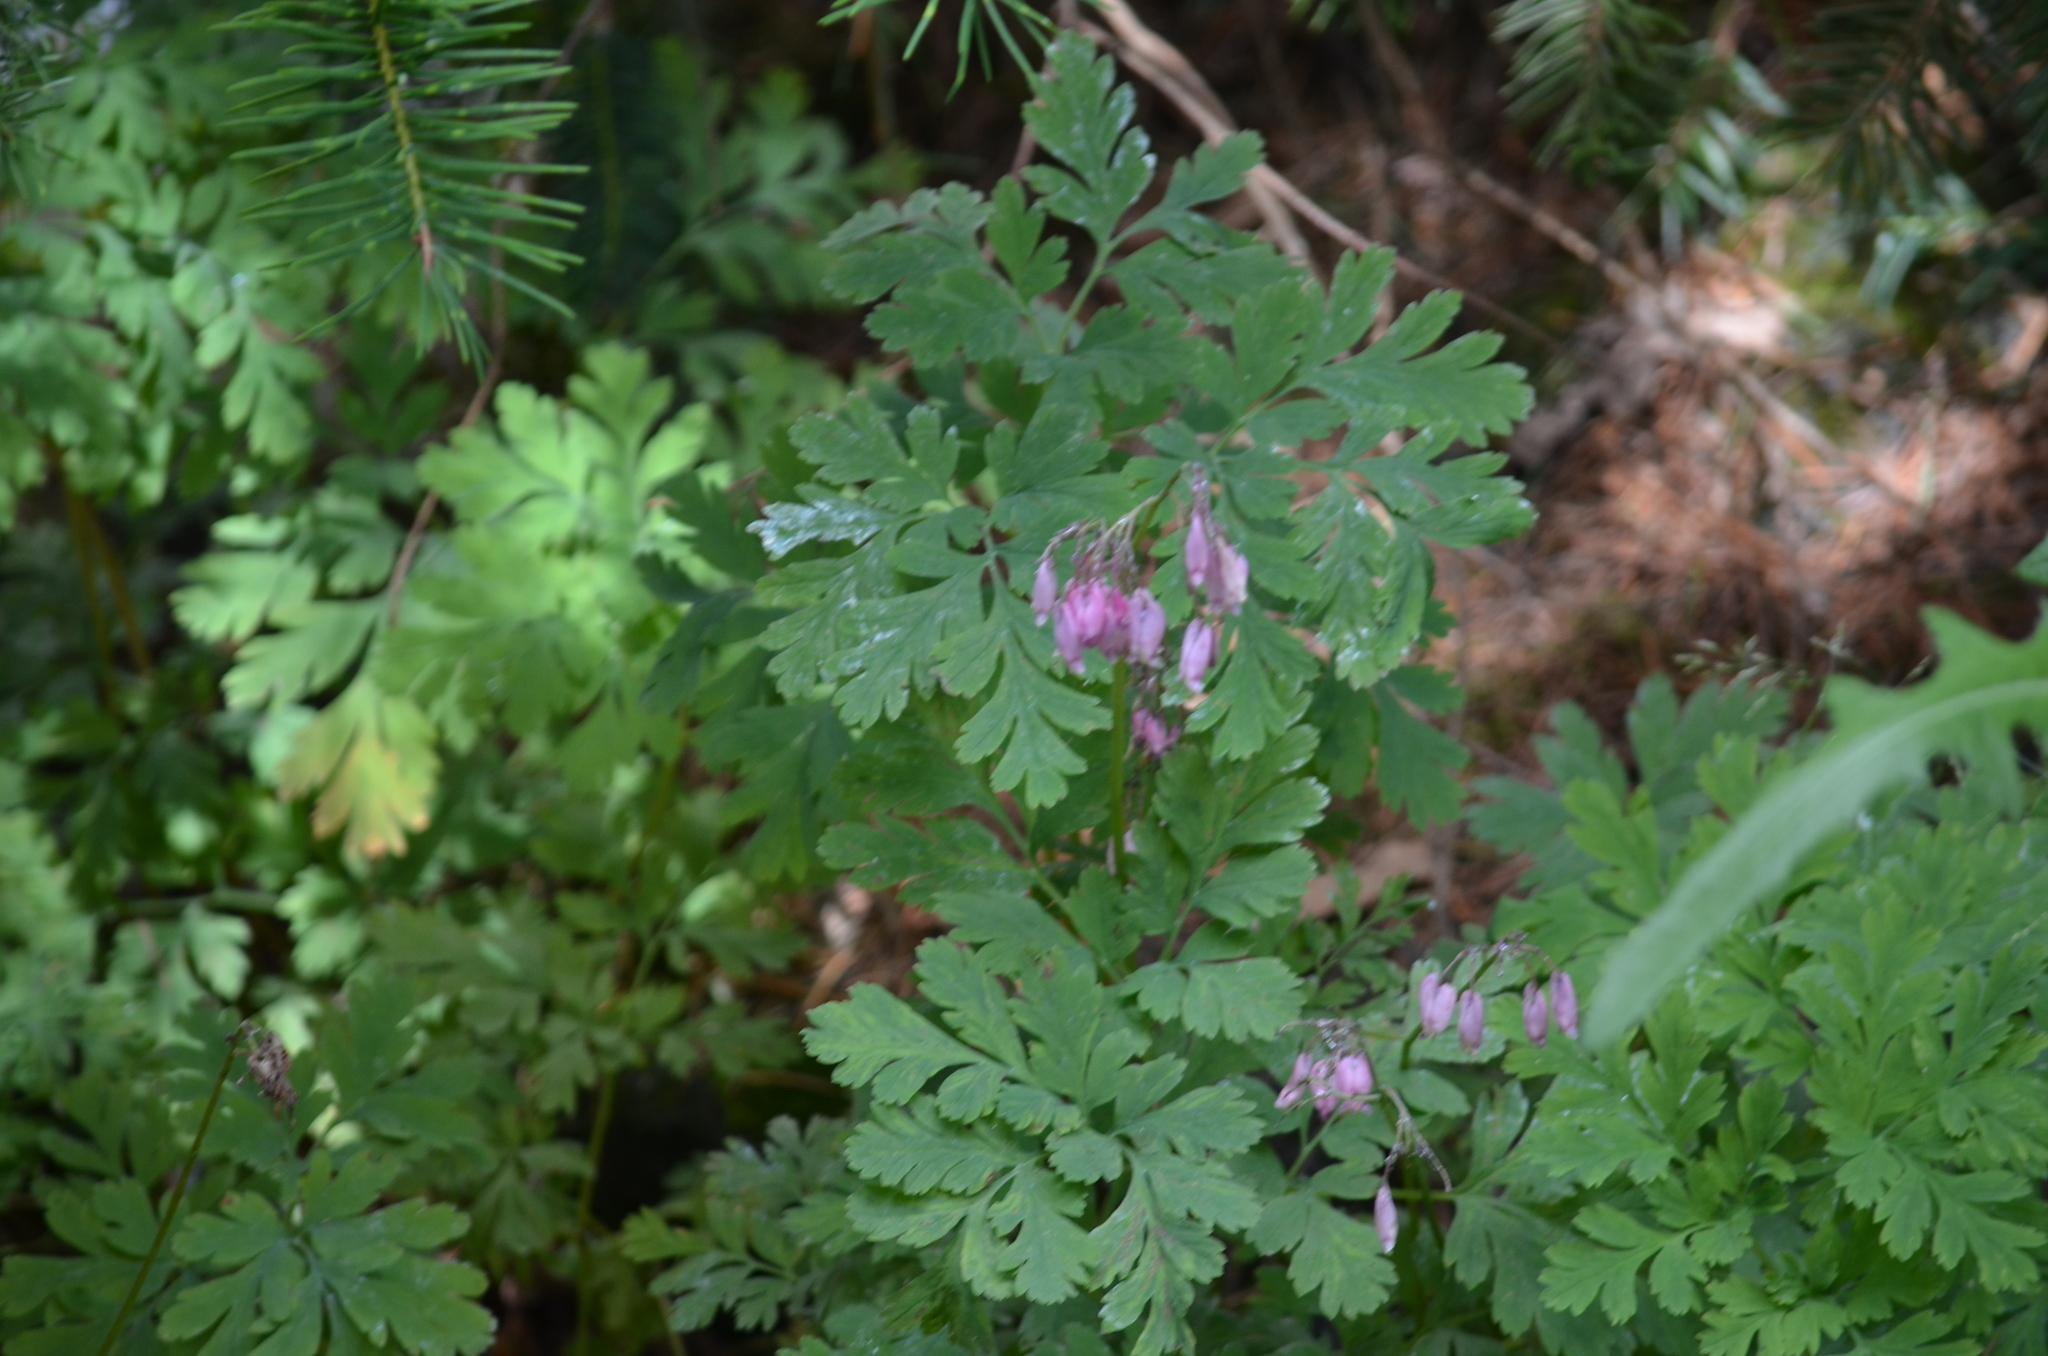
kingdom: Plantae
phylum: Tracheophyta
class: Magnoliopsida
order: Ranunculales
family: Papaveraceae
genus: Dicentra
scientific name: Dicentra formosa
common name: Bleeding-heart
